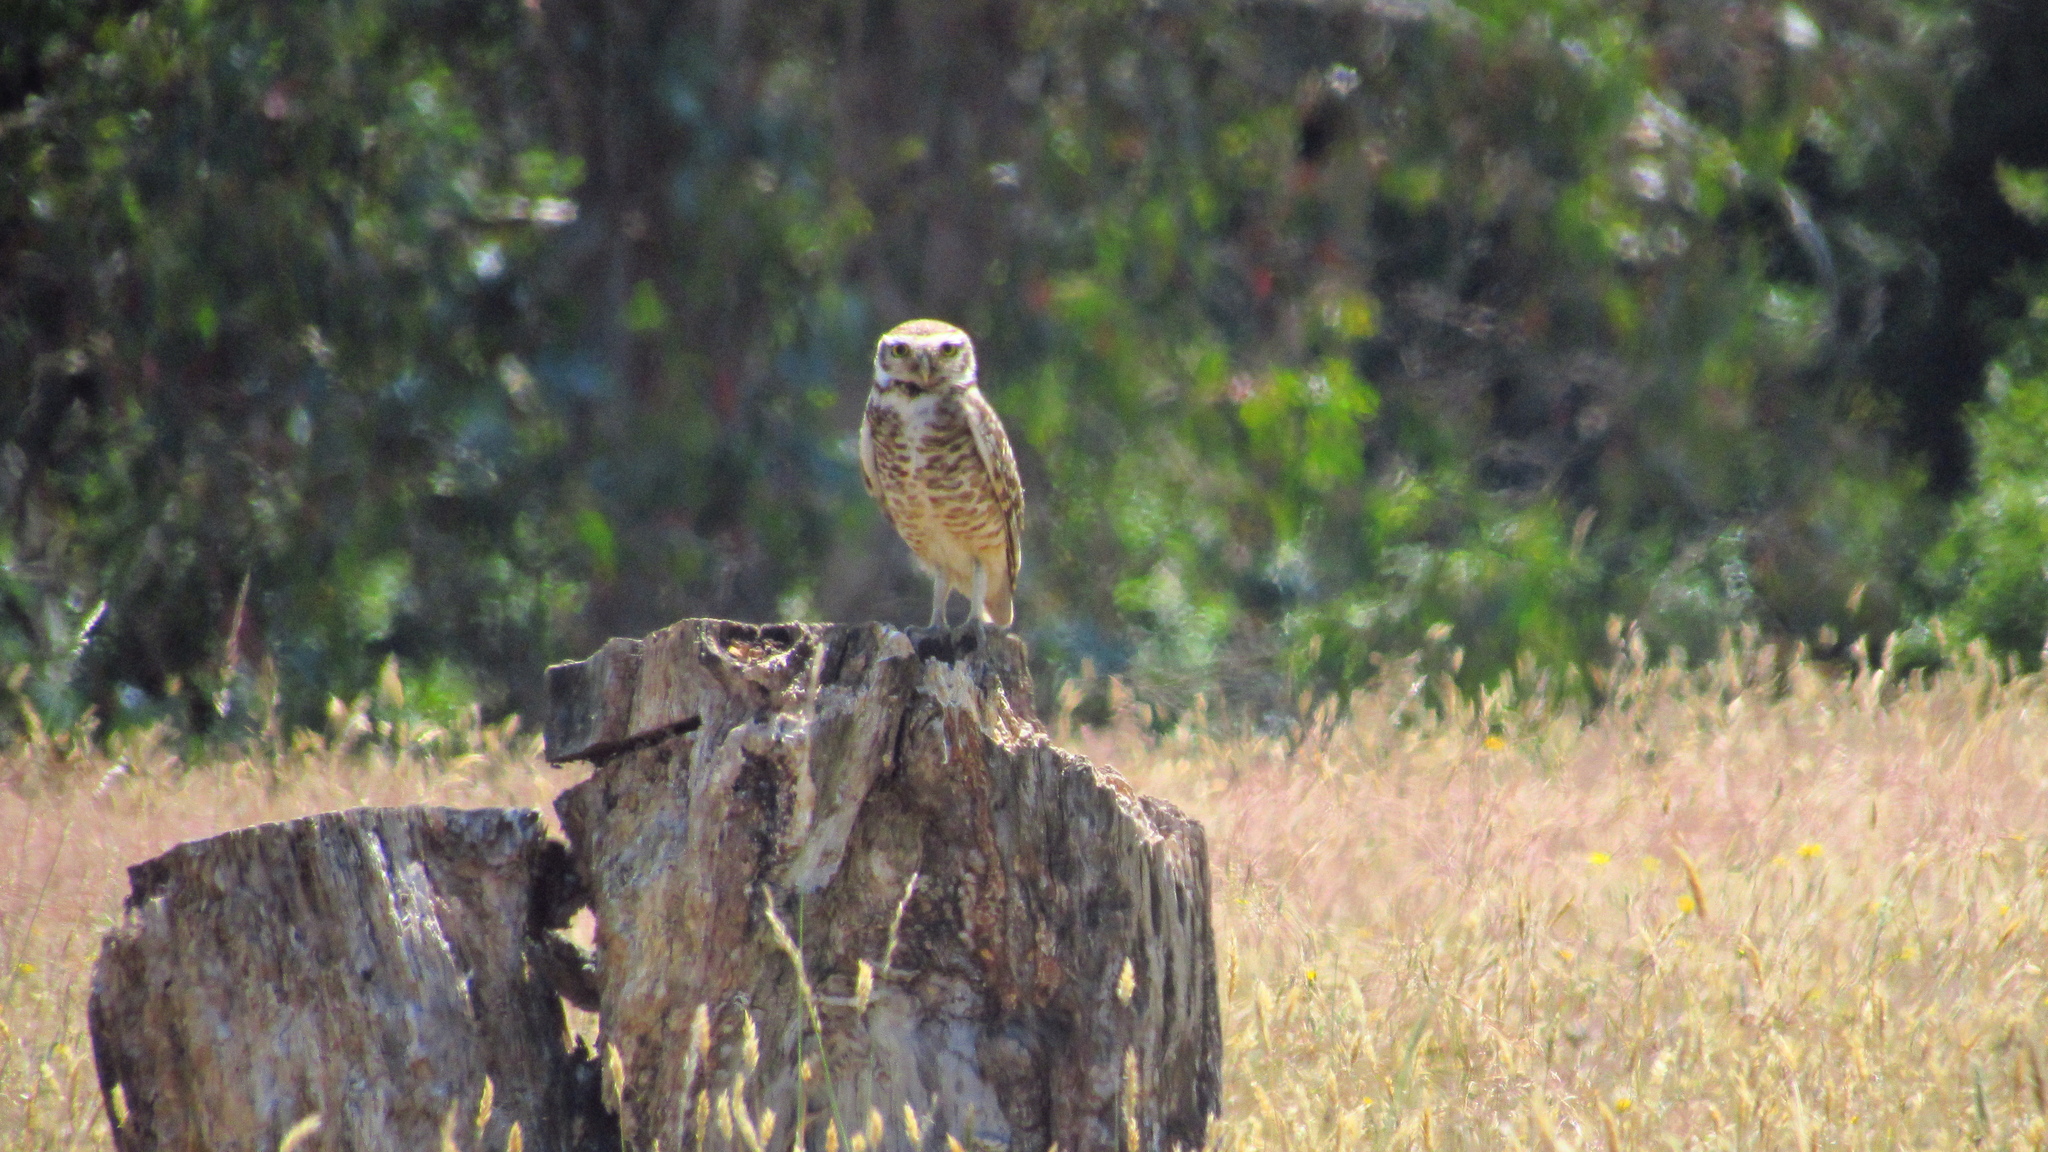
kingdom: Animalia
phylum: Chordata
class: Aves
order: Strigiformes
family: Strigidae
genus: Athene
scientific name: Athene cunicularia
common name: Burrowing owl
